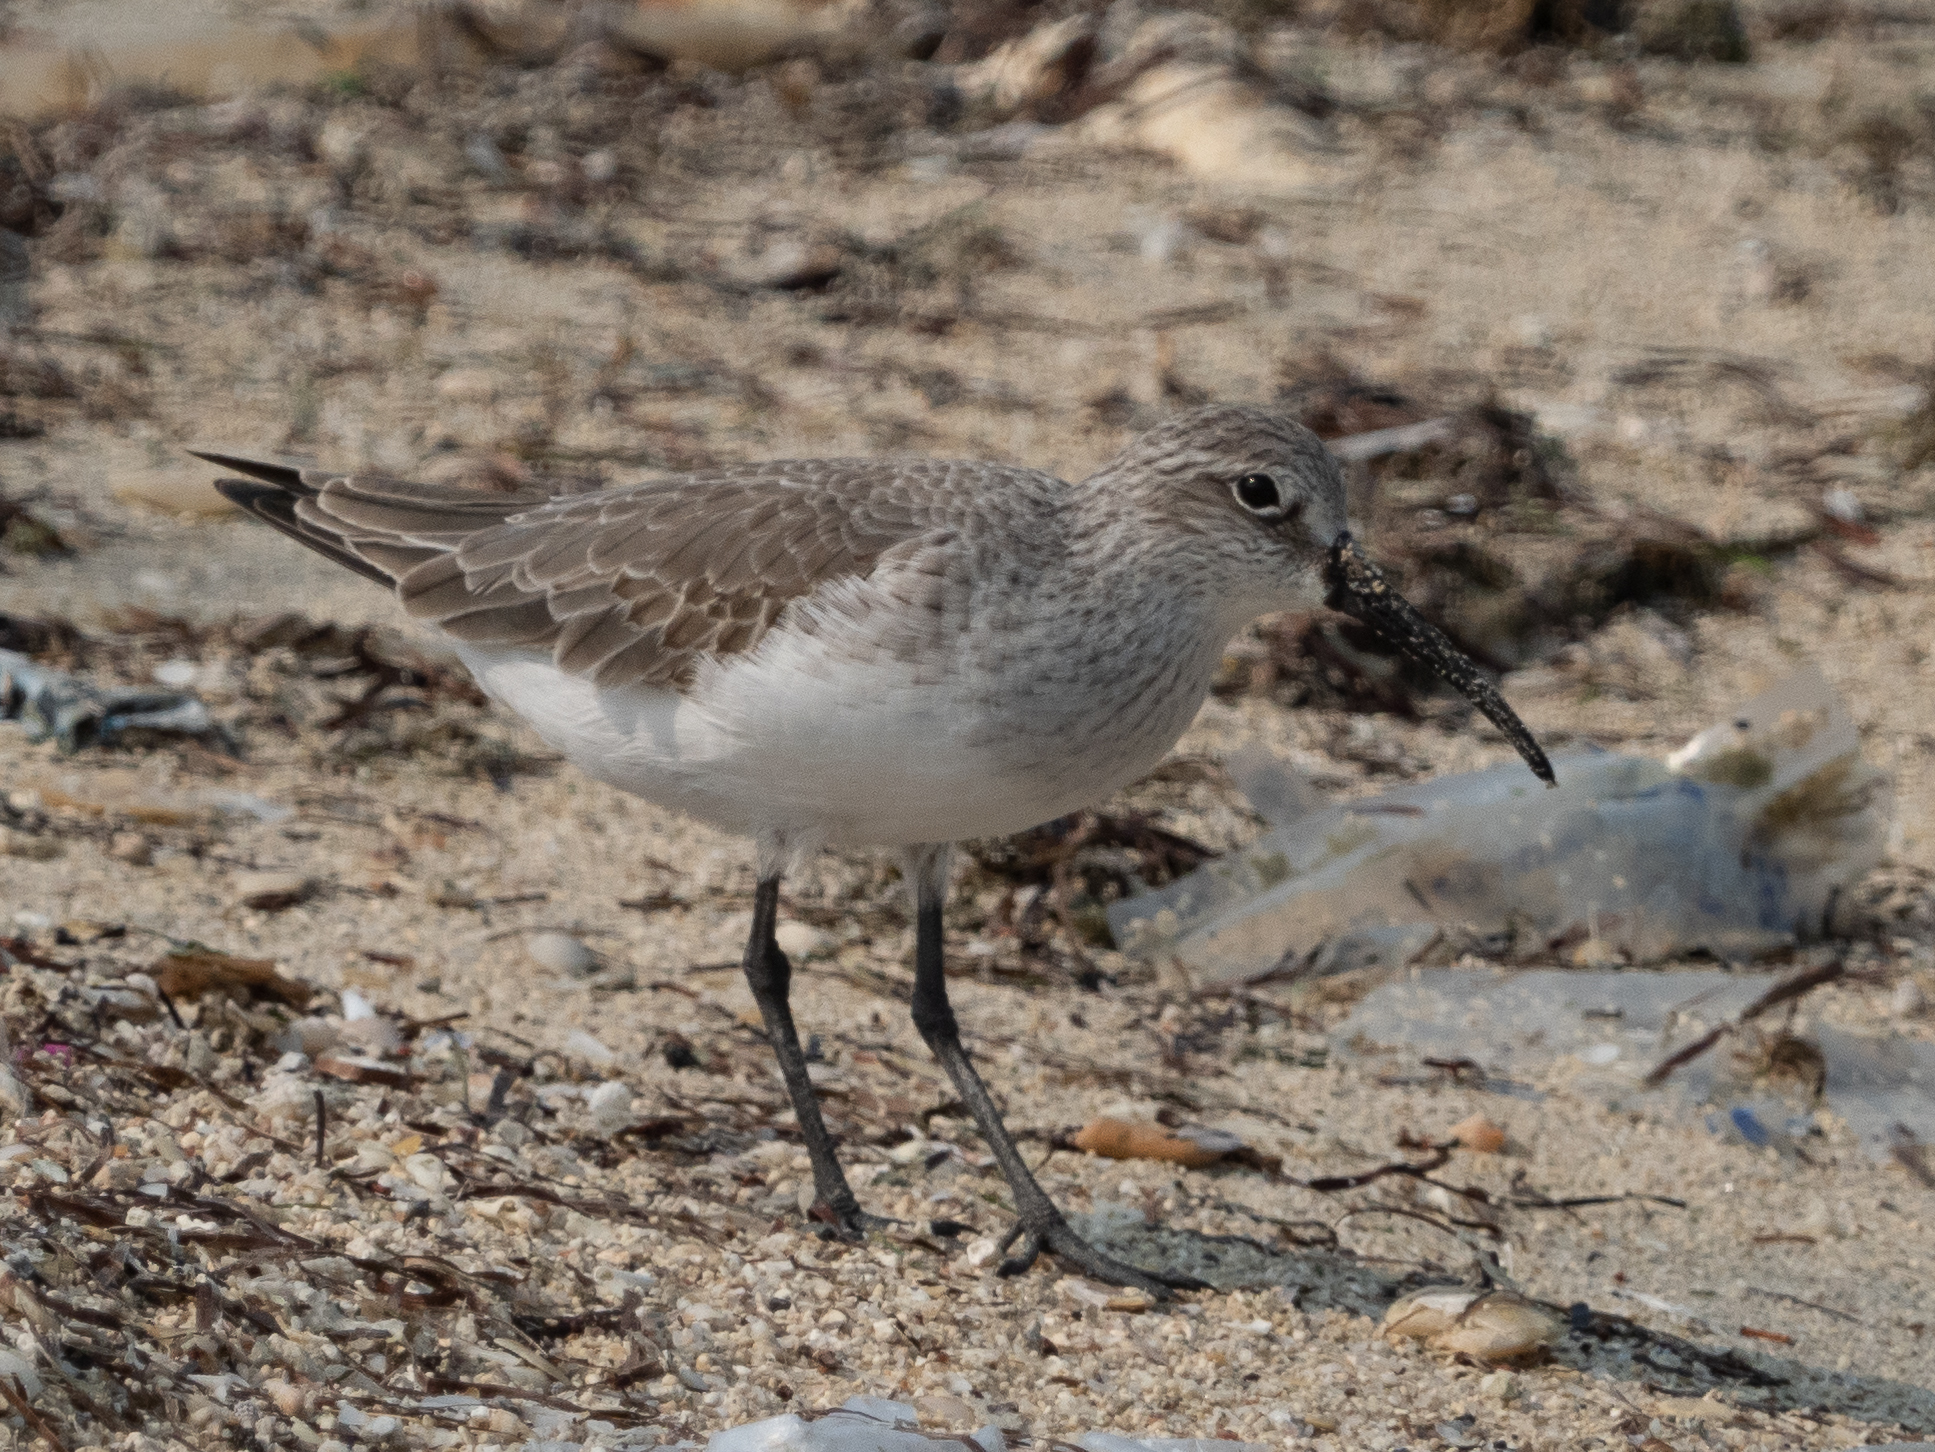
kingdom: Animalia
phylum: Chordata
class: Aves
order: Charadriiformes
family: Scolopacidae
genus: Calidris
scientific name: Calidris ferruginea
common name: Curlew sandpiper
